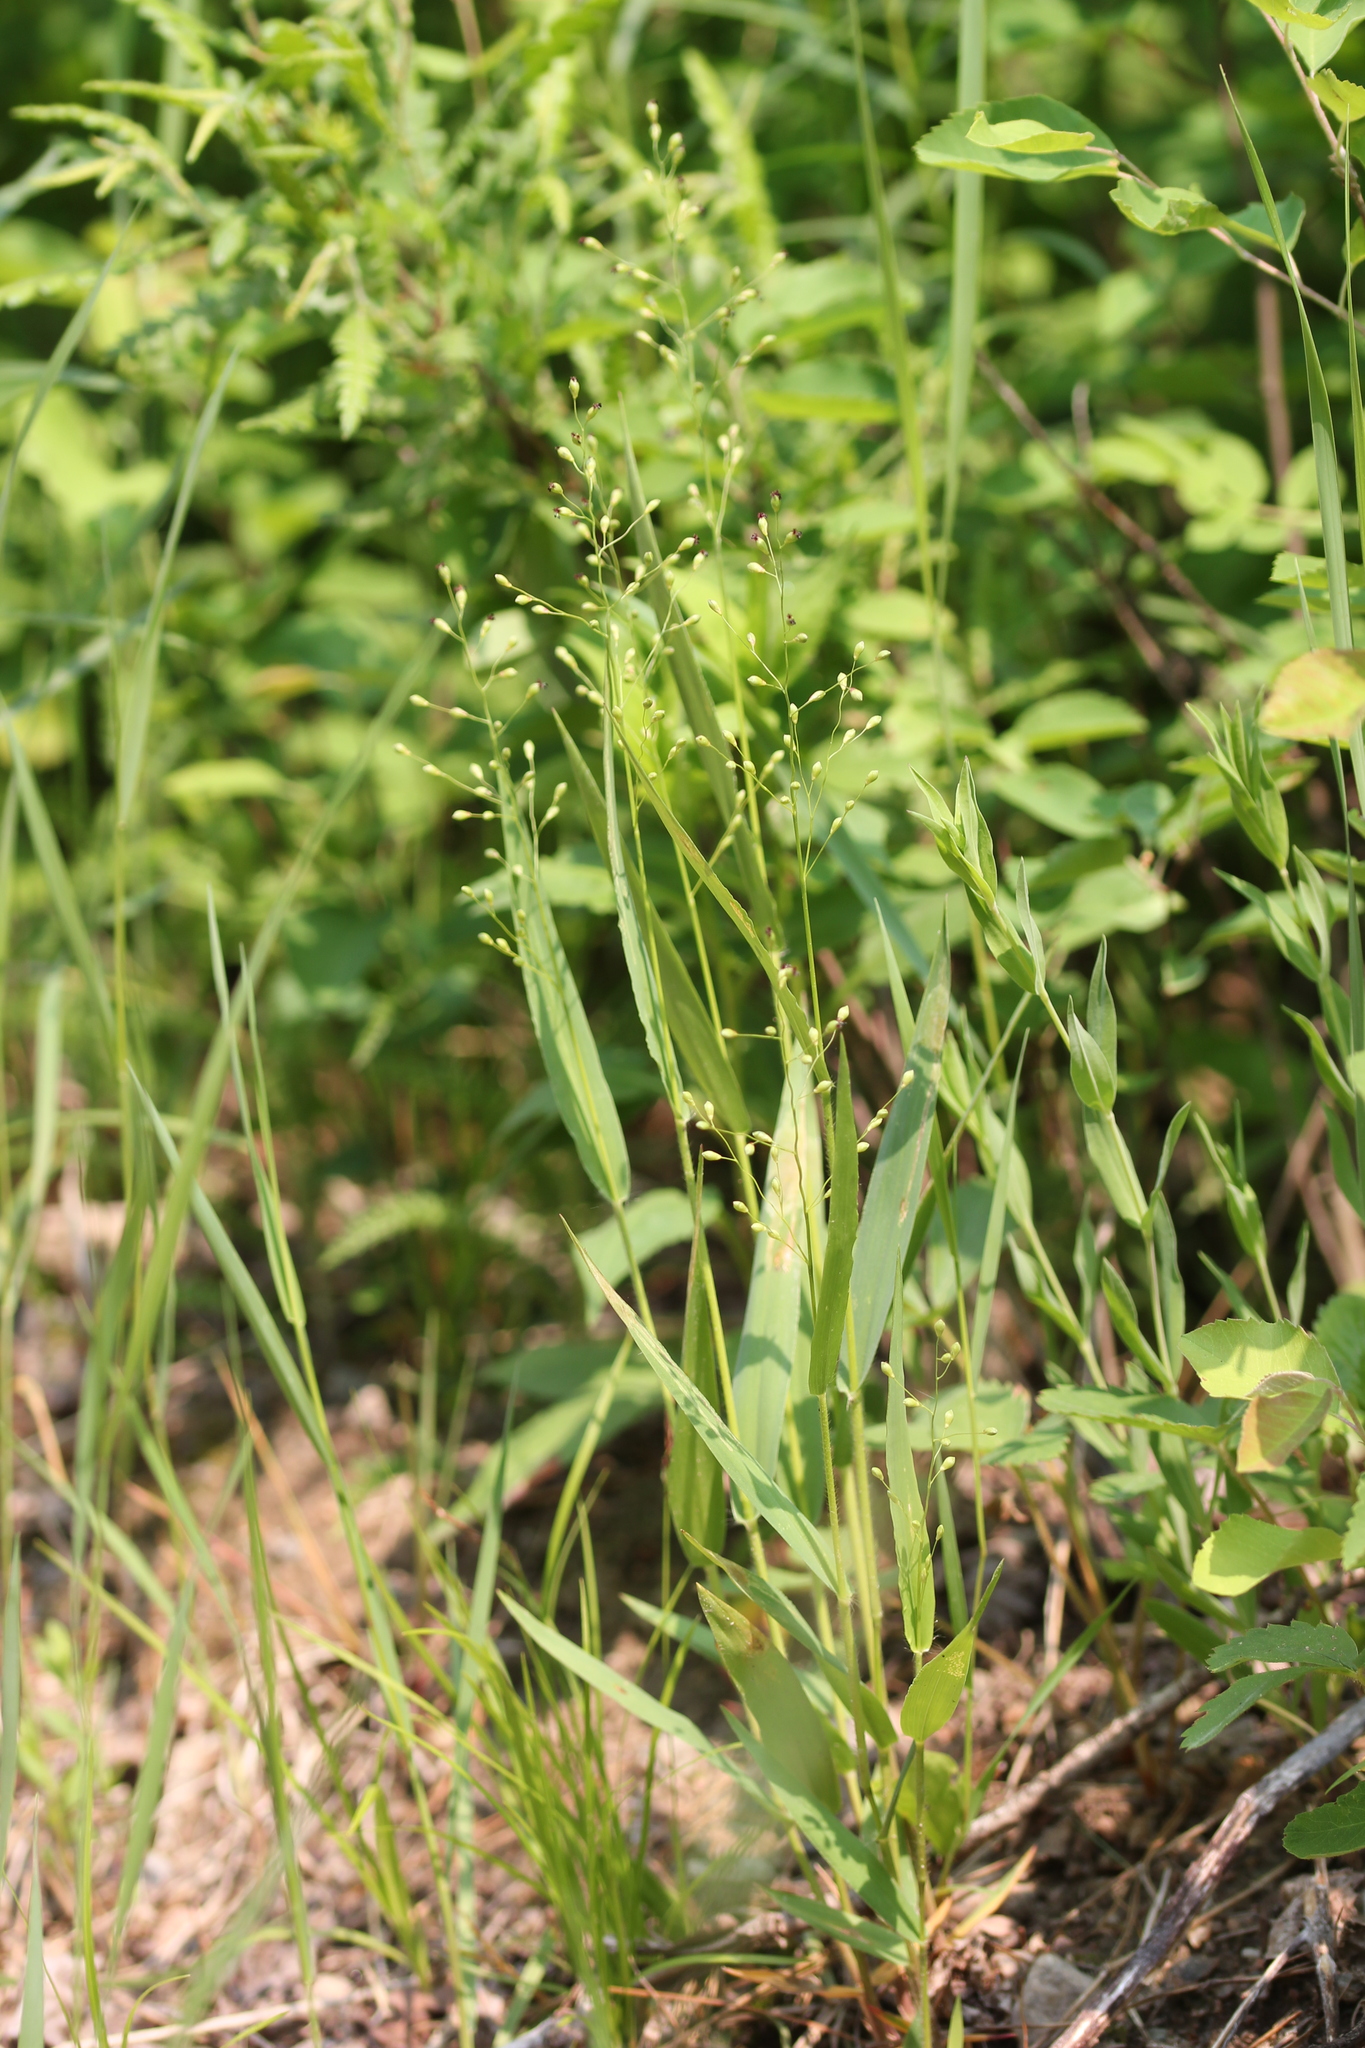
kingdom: Plantae
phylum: Tracheophyta
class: Liliopsida
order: Poales
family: Poaceae
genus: Dichanthelium
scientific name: Dichanthelium xanthophysum
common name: Pale panicgrass
